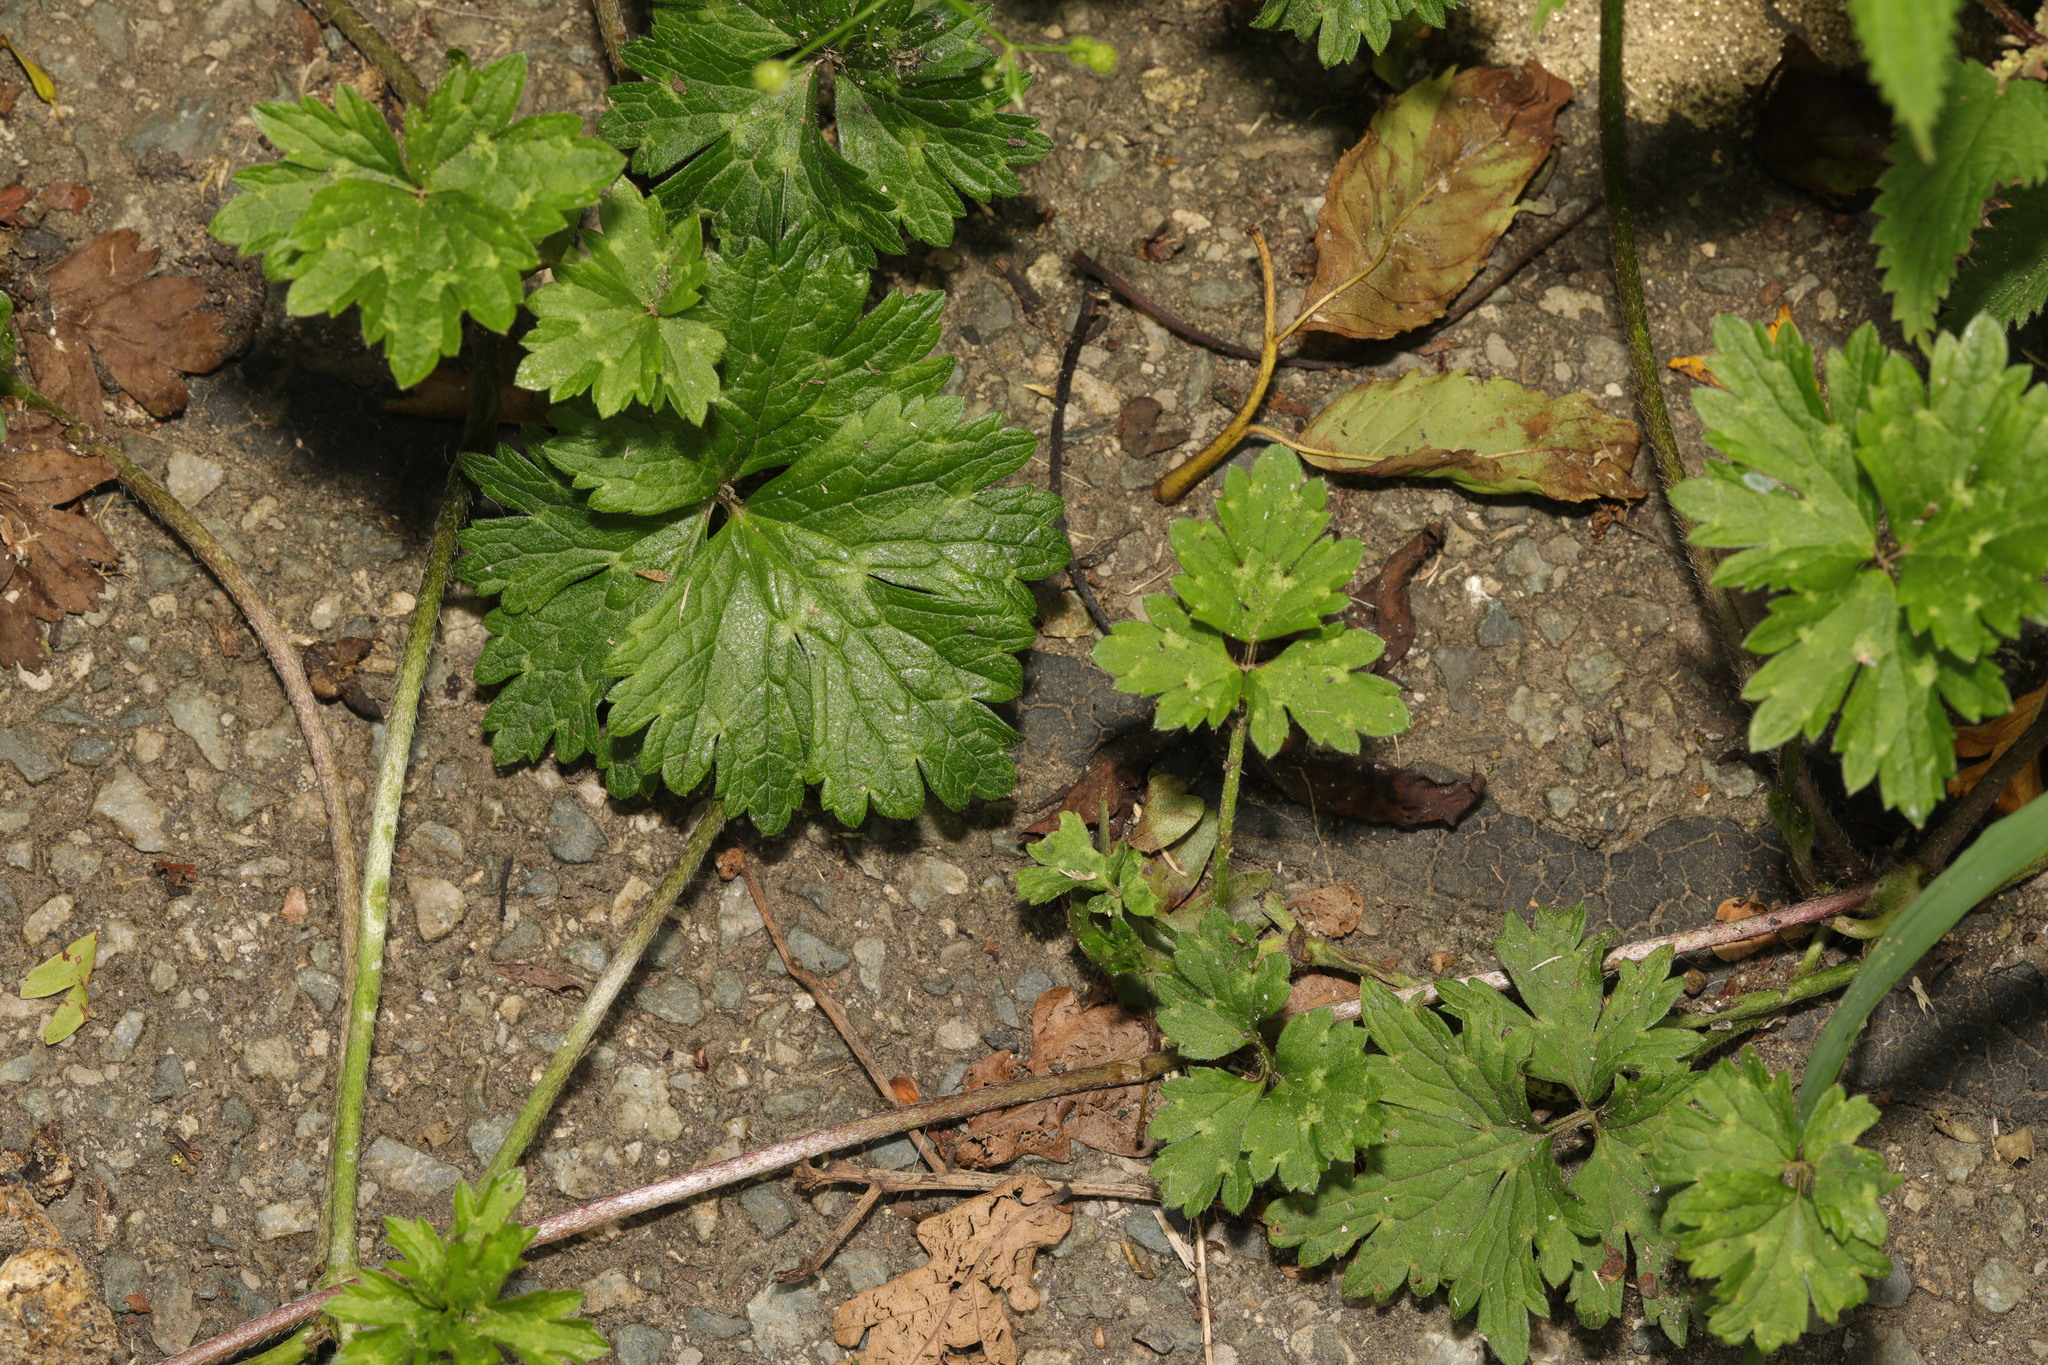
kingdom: Plantae
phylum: Tracheophyta
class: Magnoliopsida
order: Ranunculales
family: Ranunculaceae
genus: Ranunculus
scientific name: Ranunculus repens
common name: Creeping buttercup
